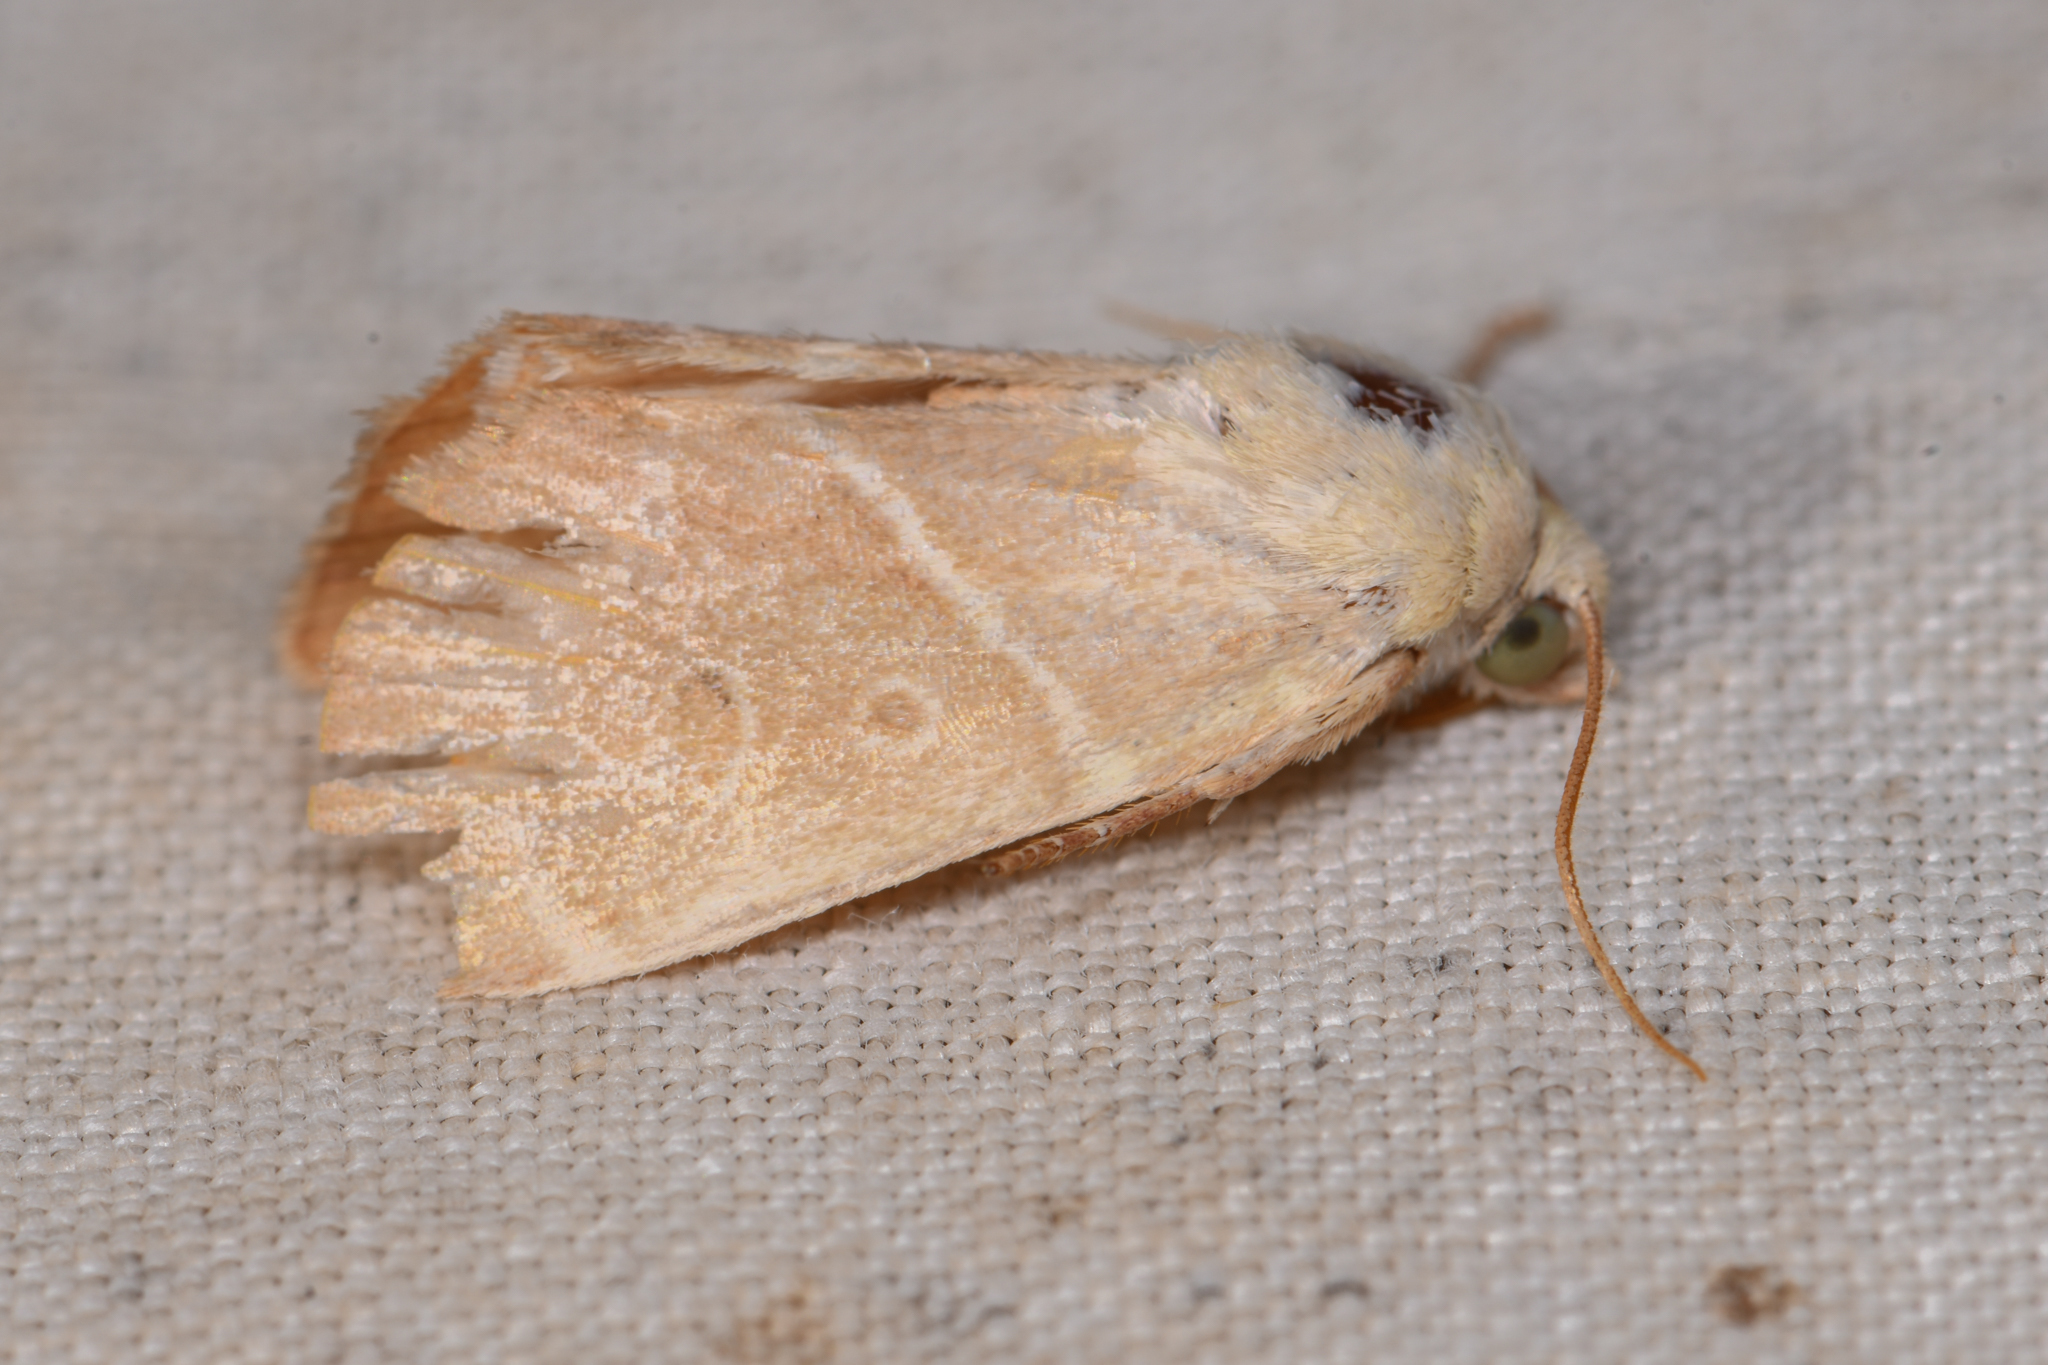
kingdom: Animalia
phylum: Arthropoda
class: Insecta
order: Lepidoptera
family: Noctuidae
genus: Cosmia
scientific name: Cosmia calami
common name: American dun-bar moth
